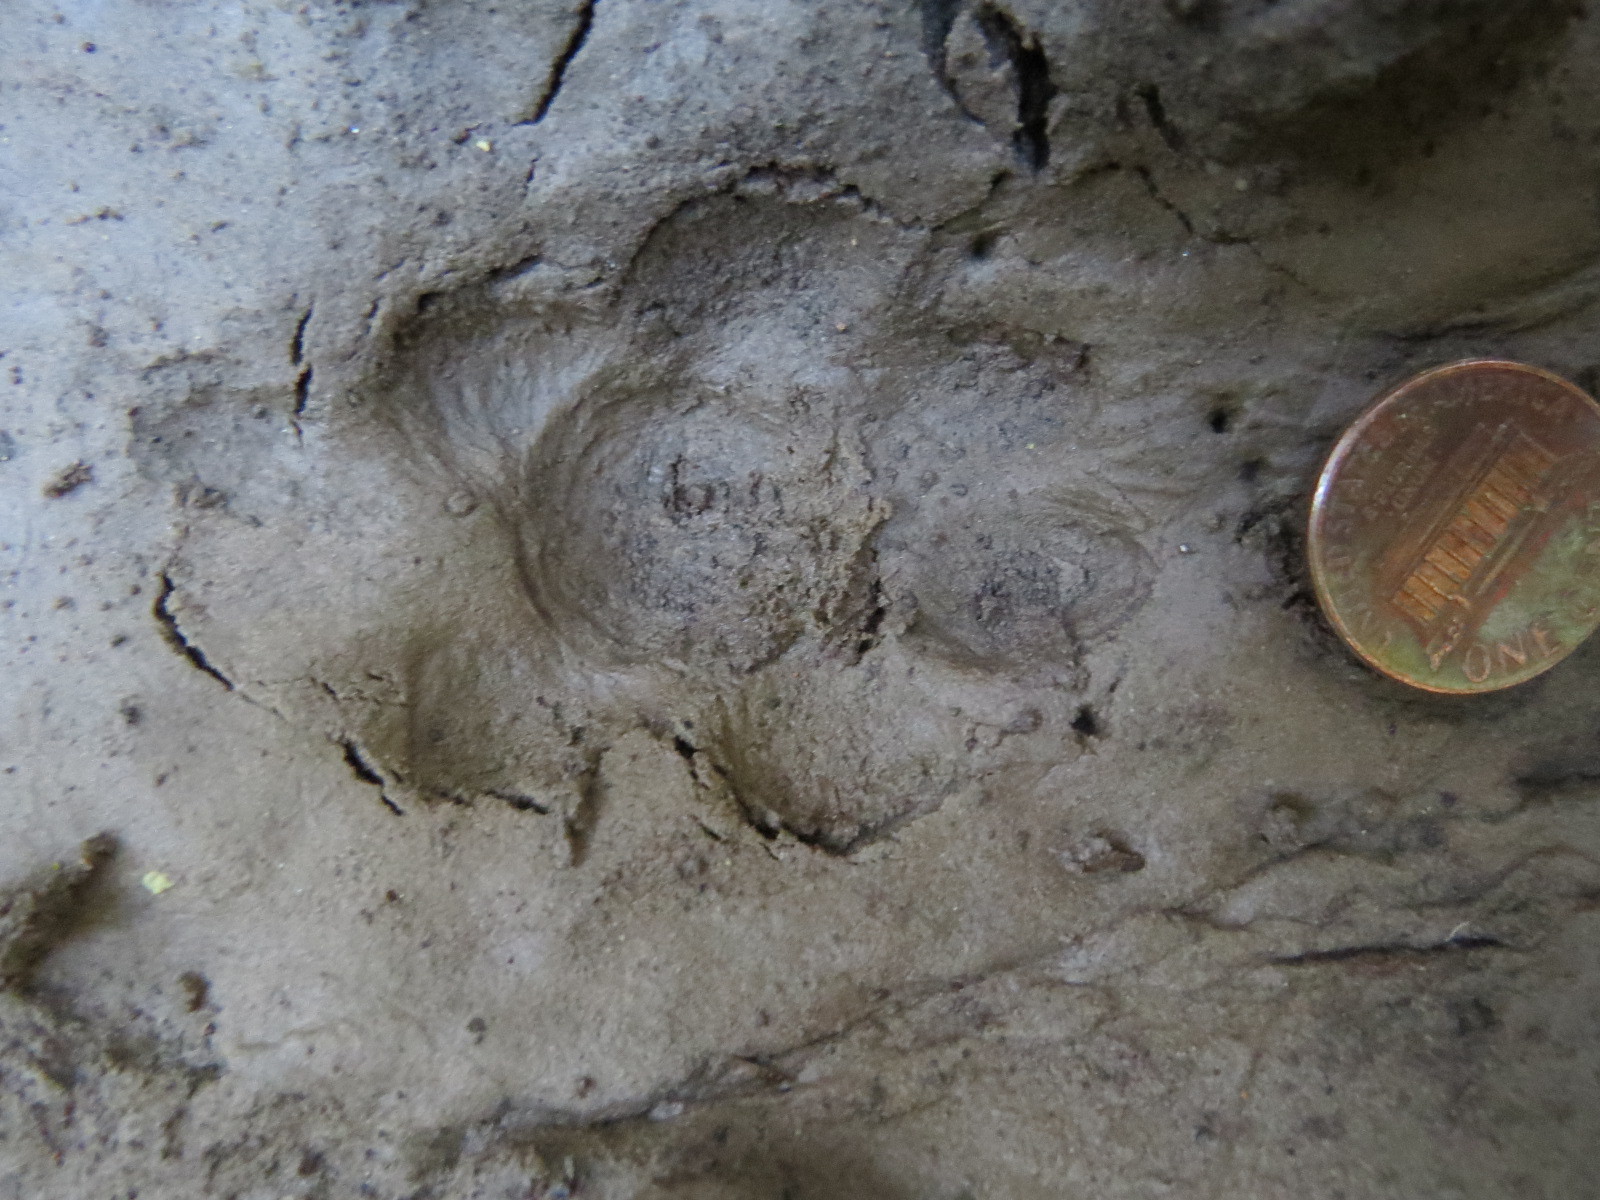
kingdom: Animalia
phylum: Chordata
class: Mammalia
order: Carnivora
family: Canidae
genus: Urocyon
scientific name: Urocyon cinereoargenteus
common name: Gray fox
